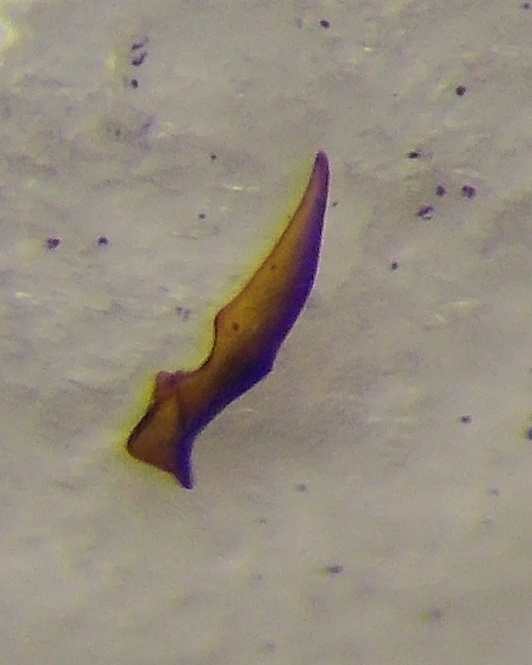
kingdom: Animalia
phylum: Arthropoda
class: Insecta
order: Hemiptera
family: Rhyparochromidae
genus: Emblethis
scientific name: Emblethis ciliatus
